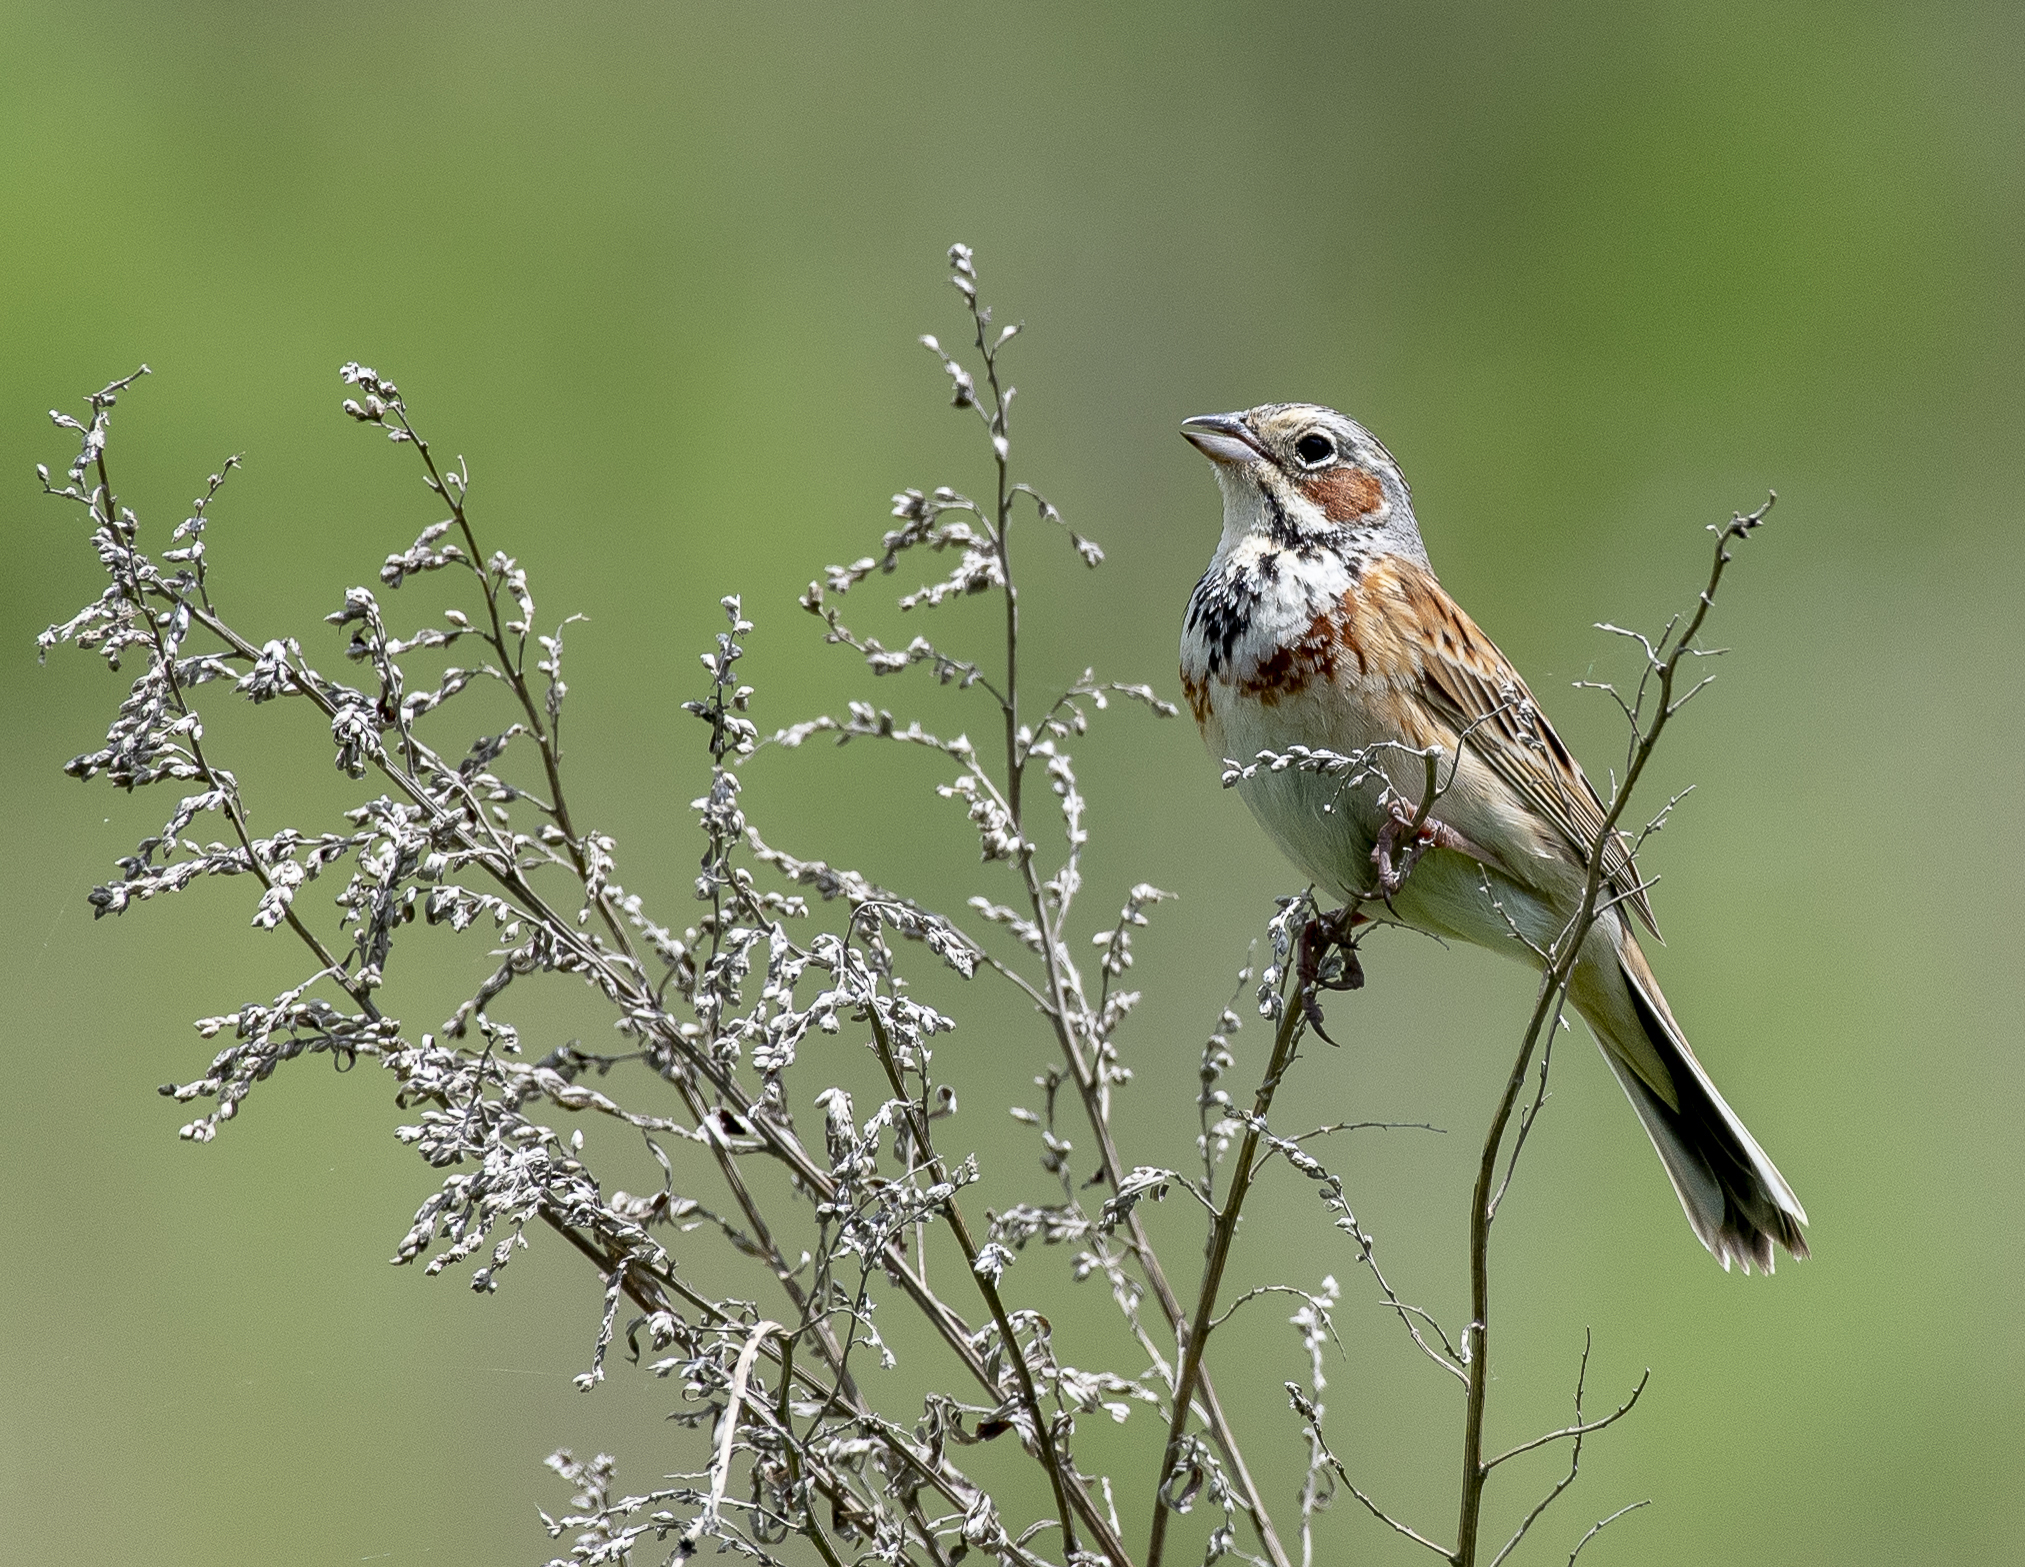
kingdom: Animalia
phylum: Chordata
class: Aves
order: Passeriformes
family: Emberizidae
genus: Emberiza
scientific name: Emberiza fucata
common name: Chestnut-eared bunting
